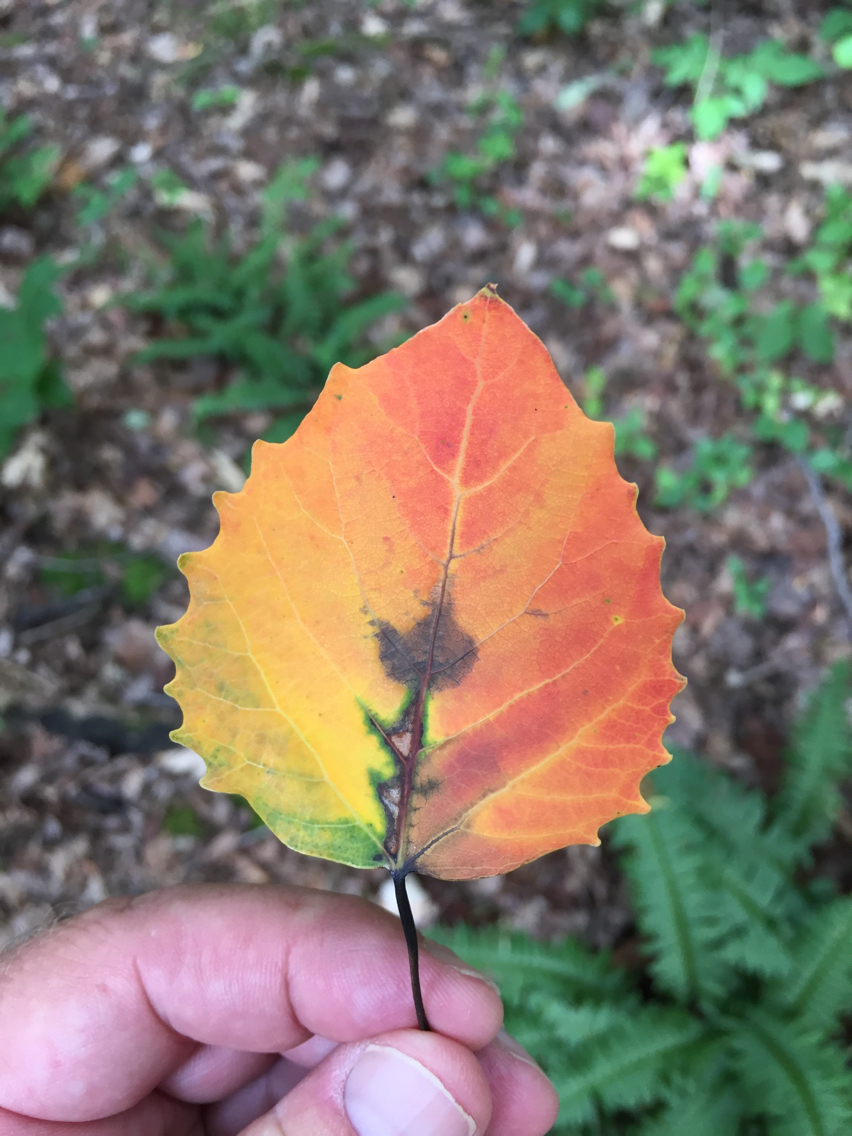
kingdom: Plantae
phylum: Tracheophyta
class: Magnoliopsida
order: Malpighiales
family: Salicaceae
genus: Populus
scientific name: Populus grandidentata
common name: Bigtooth aspen
